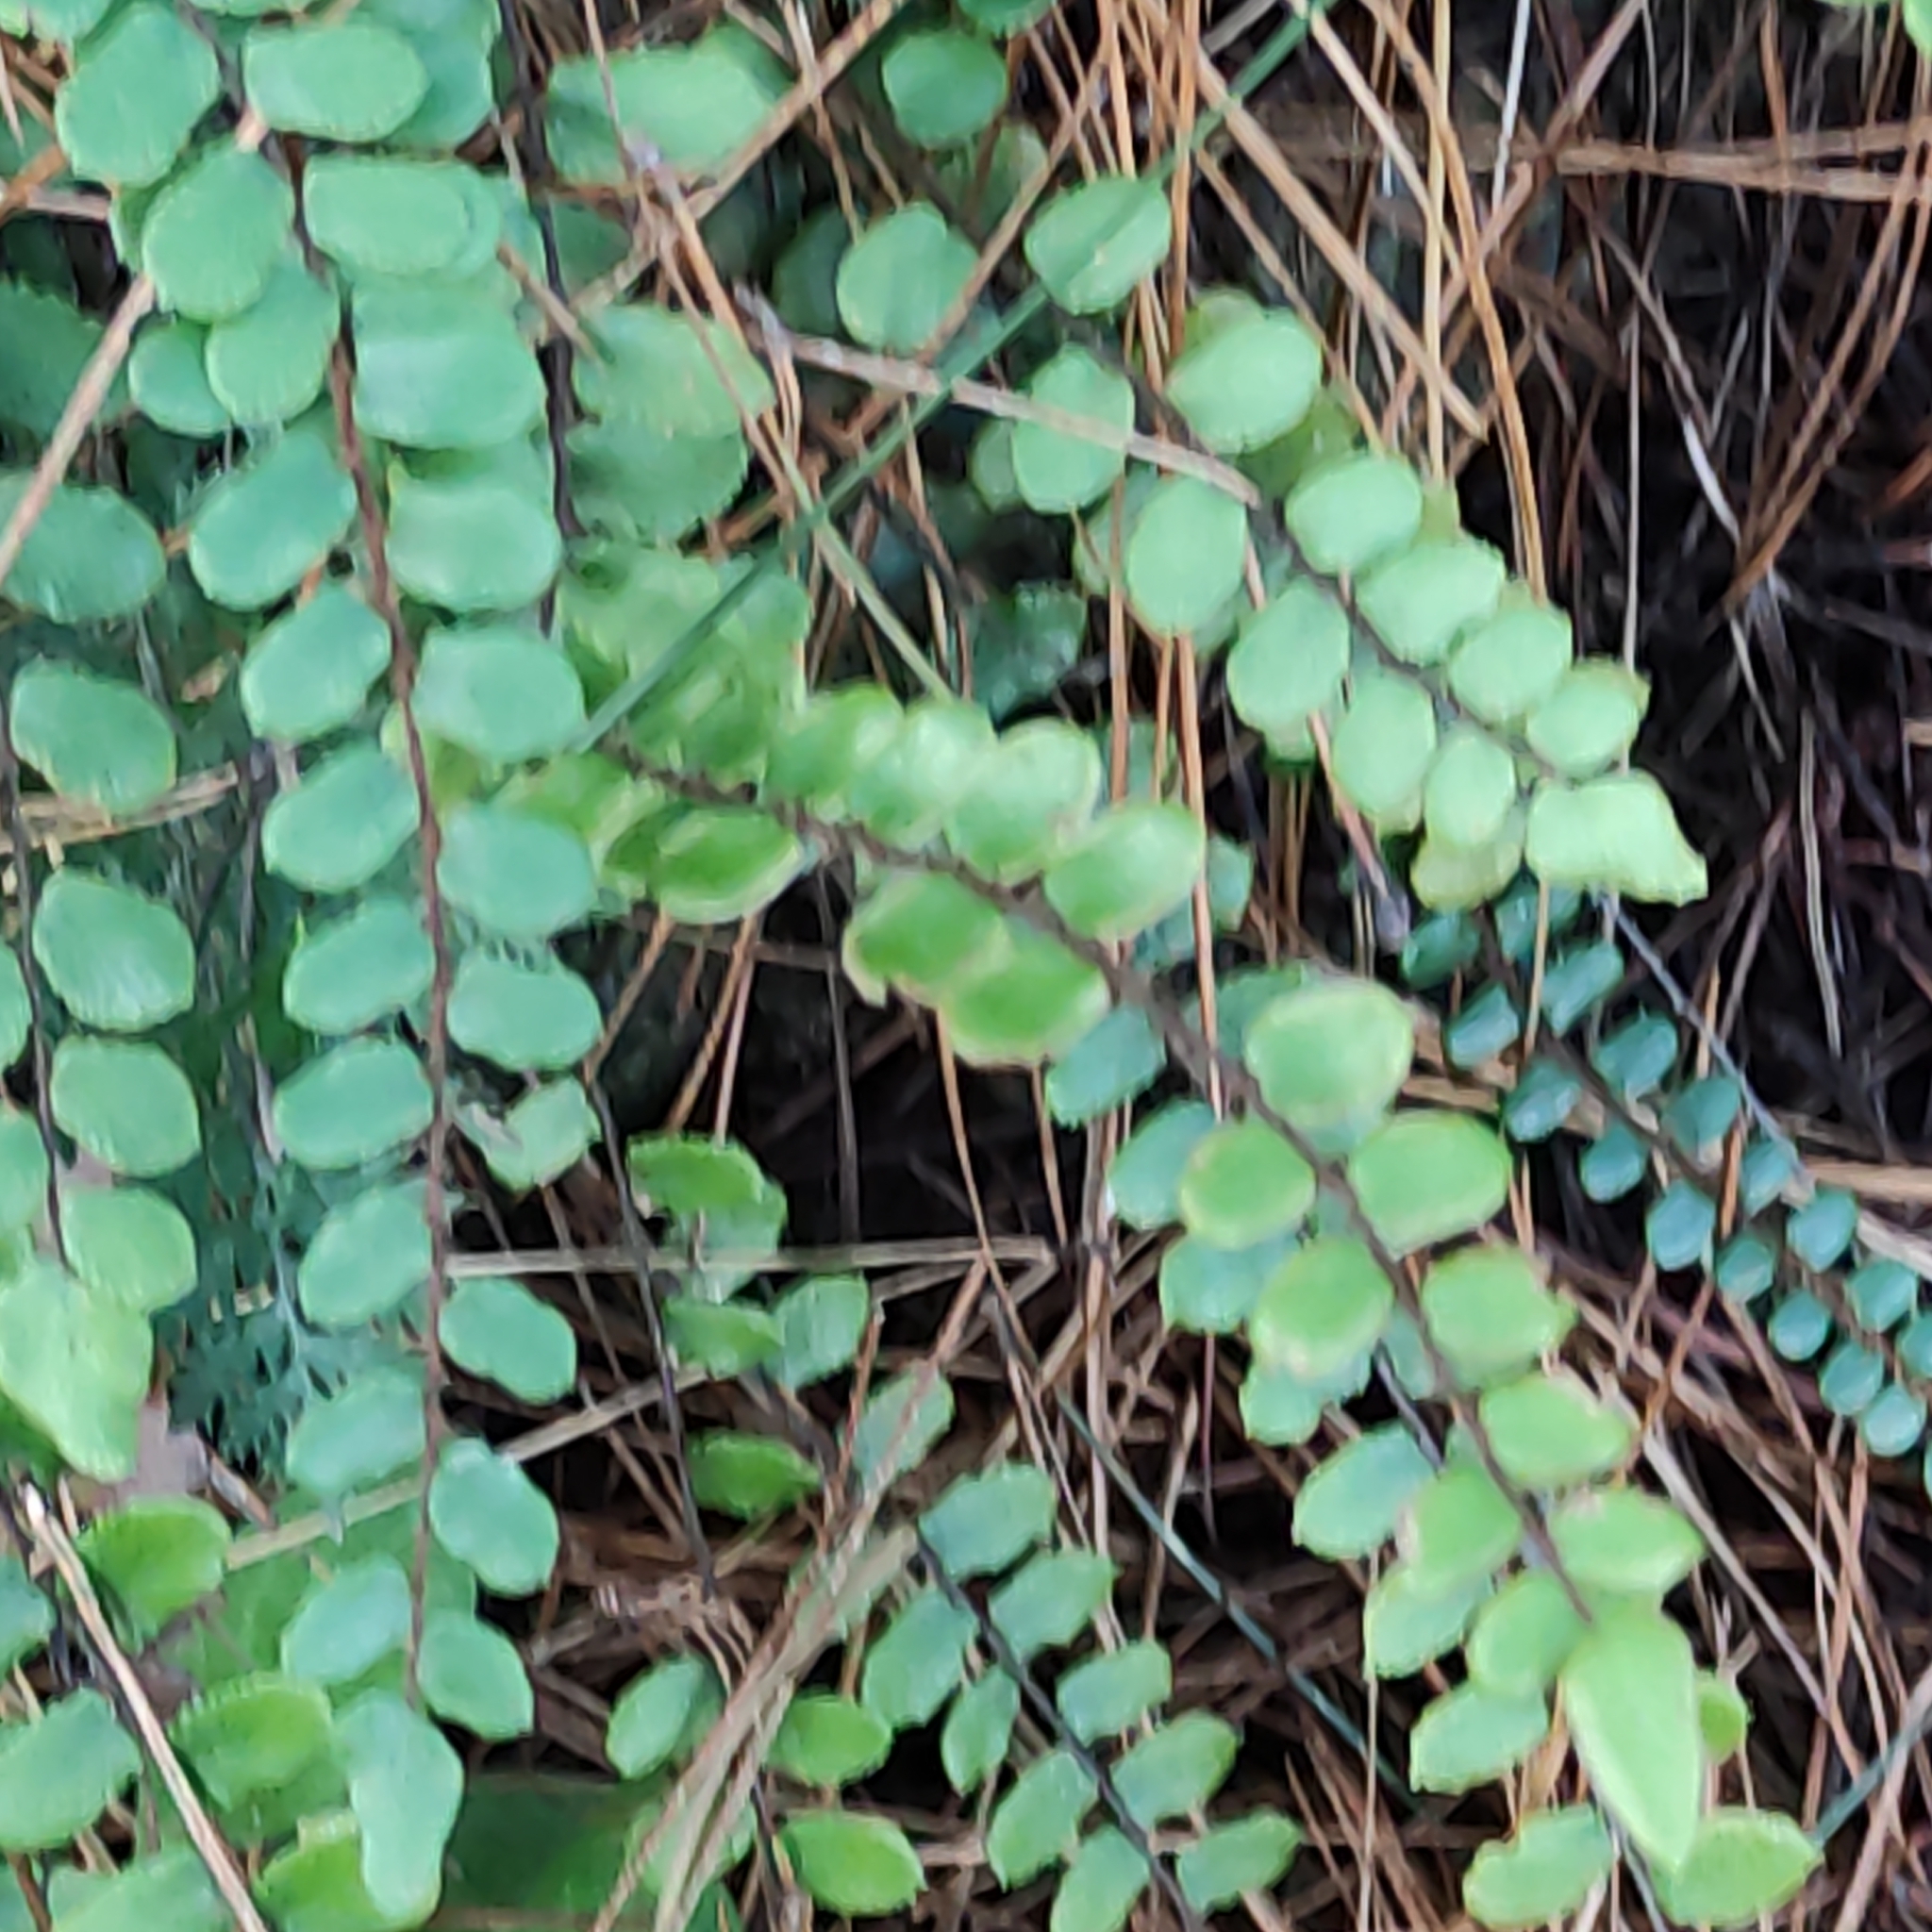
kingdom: Plantae
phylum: Tracheophyta
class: Polypodiopsida
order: Polypodiales
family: Pteridaceae
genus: Pellaea
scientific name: Pellaea rotundifolia
